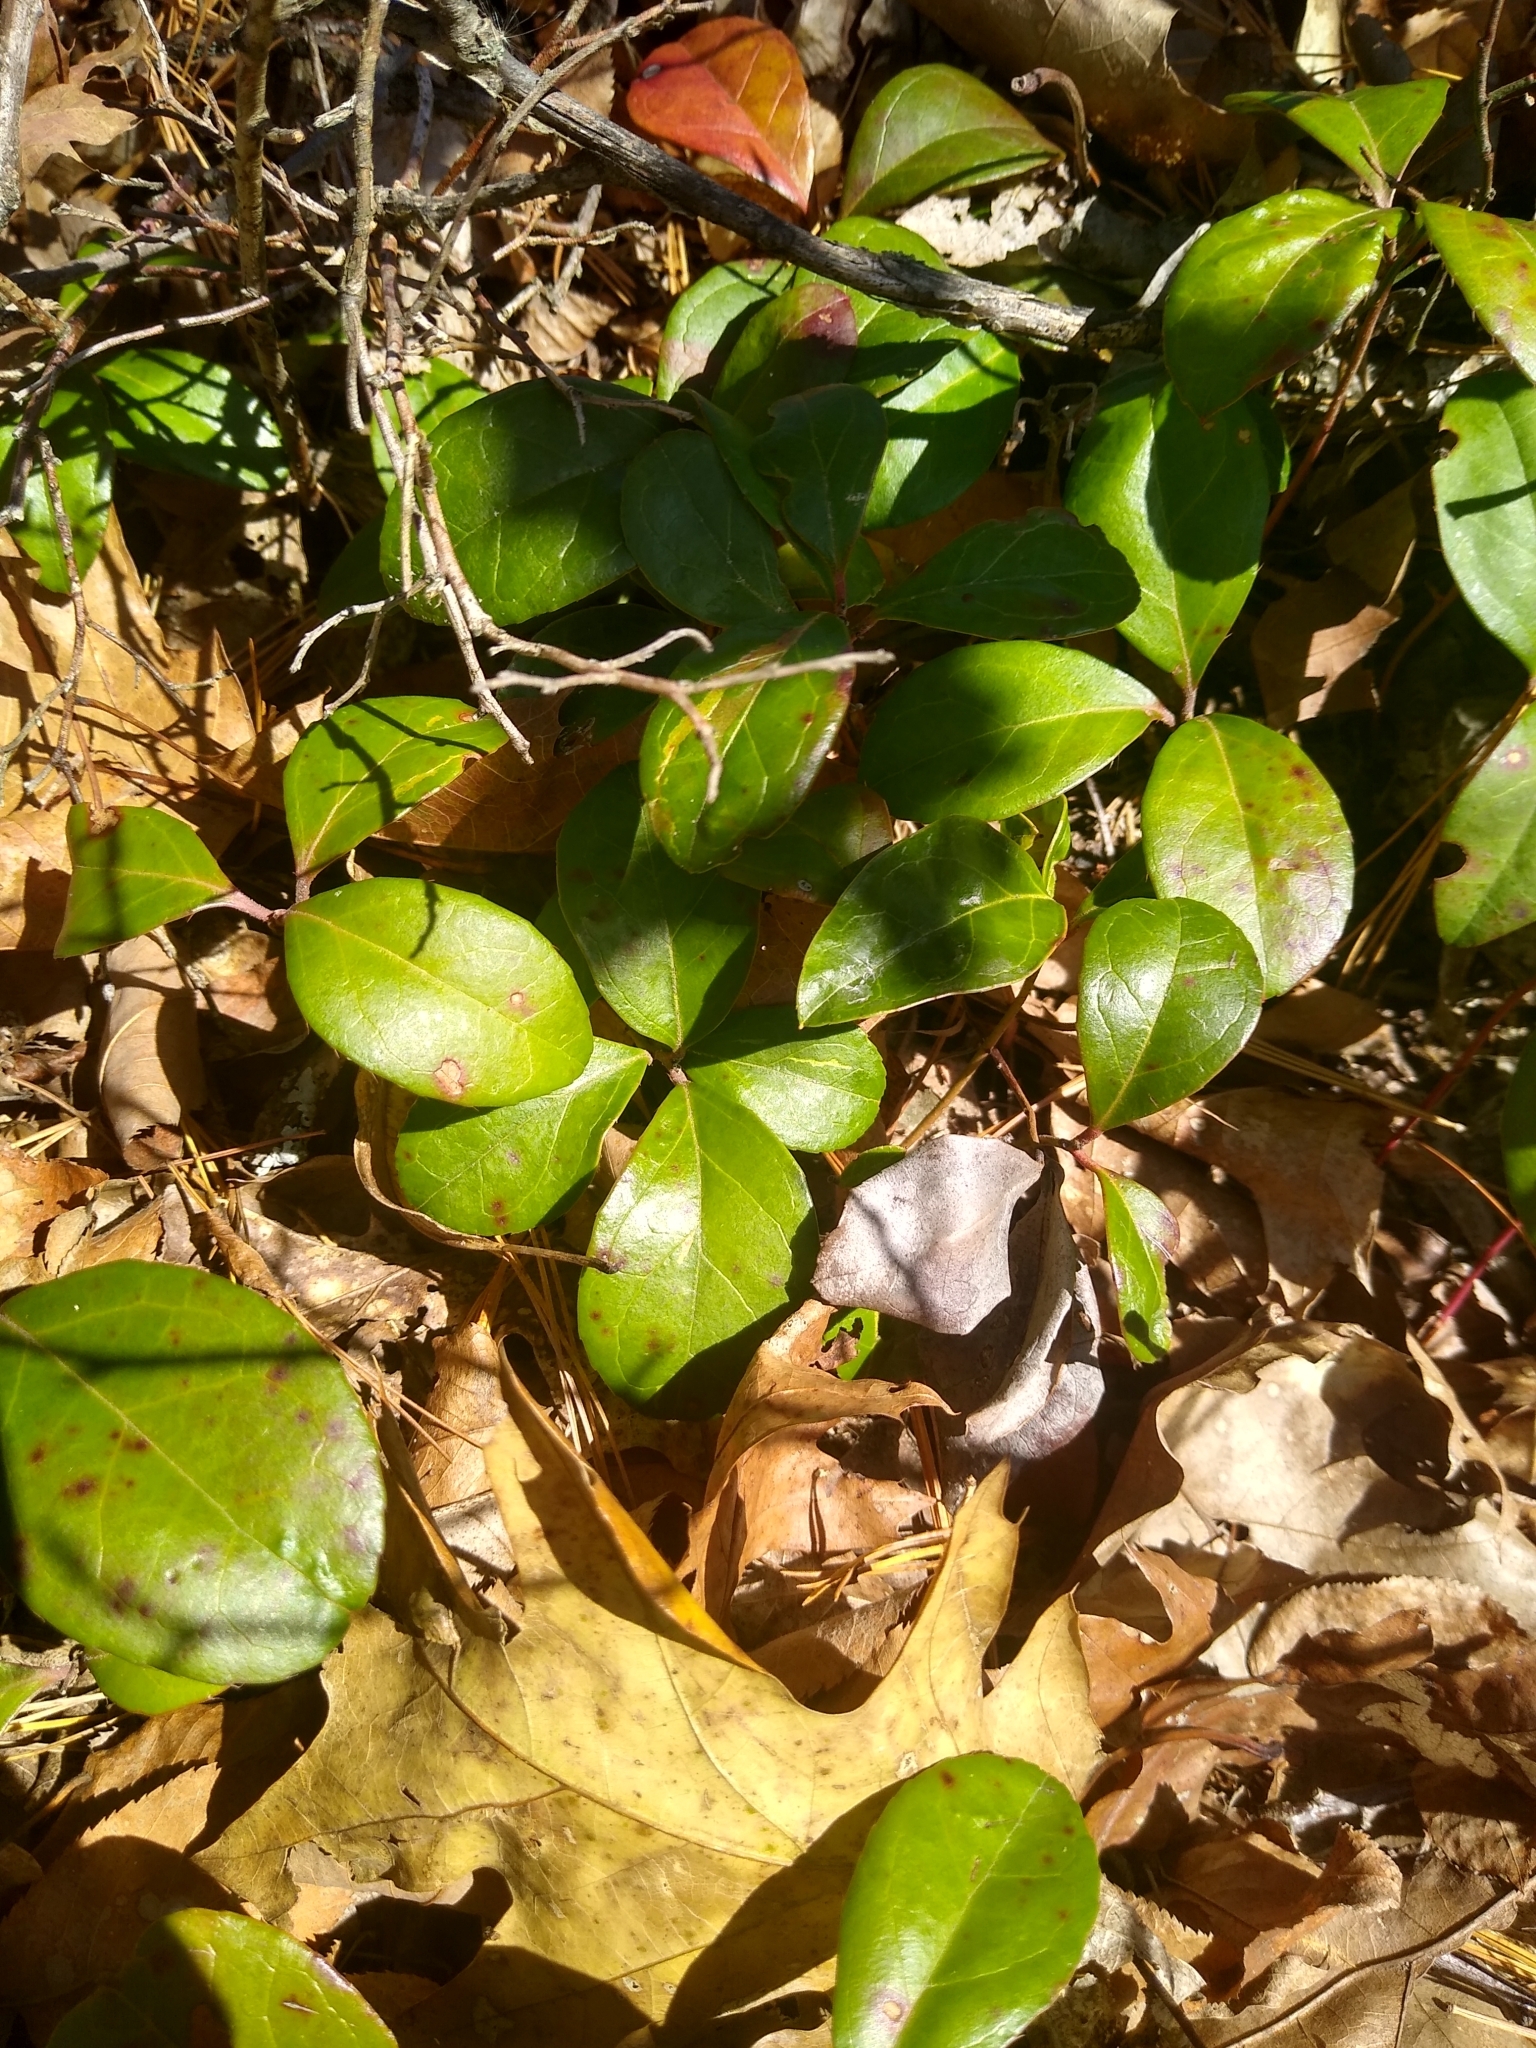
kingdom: Plantae
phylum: Tracheophyta
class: Magnoliopsida
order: Ericales
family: Ericaceae
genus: Gaultheria
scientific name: Gaultheria procumbens
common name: Checkerberry
